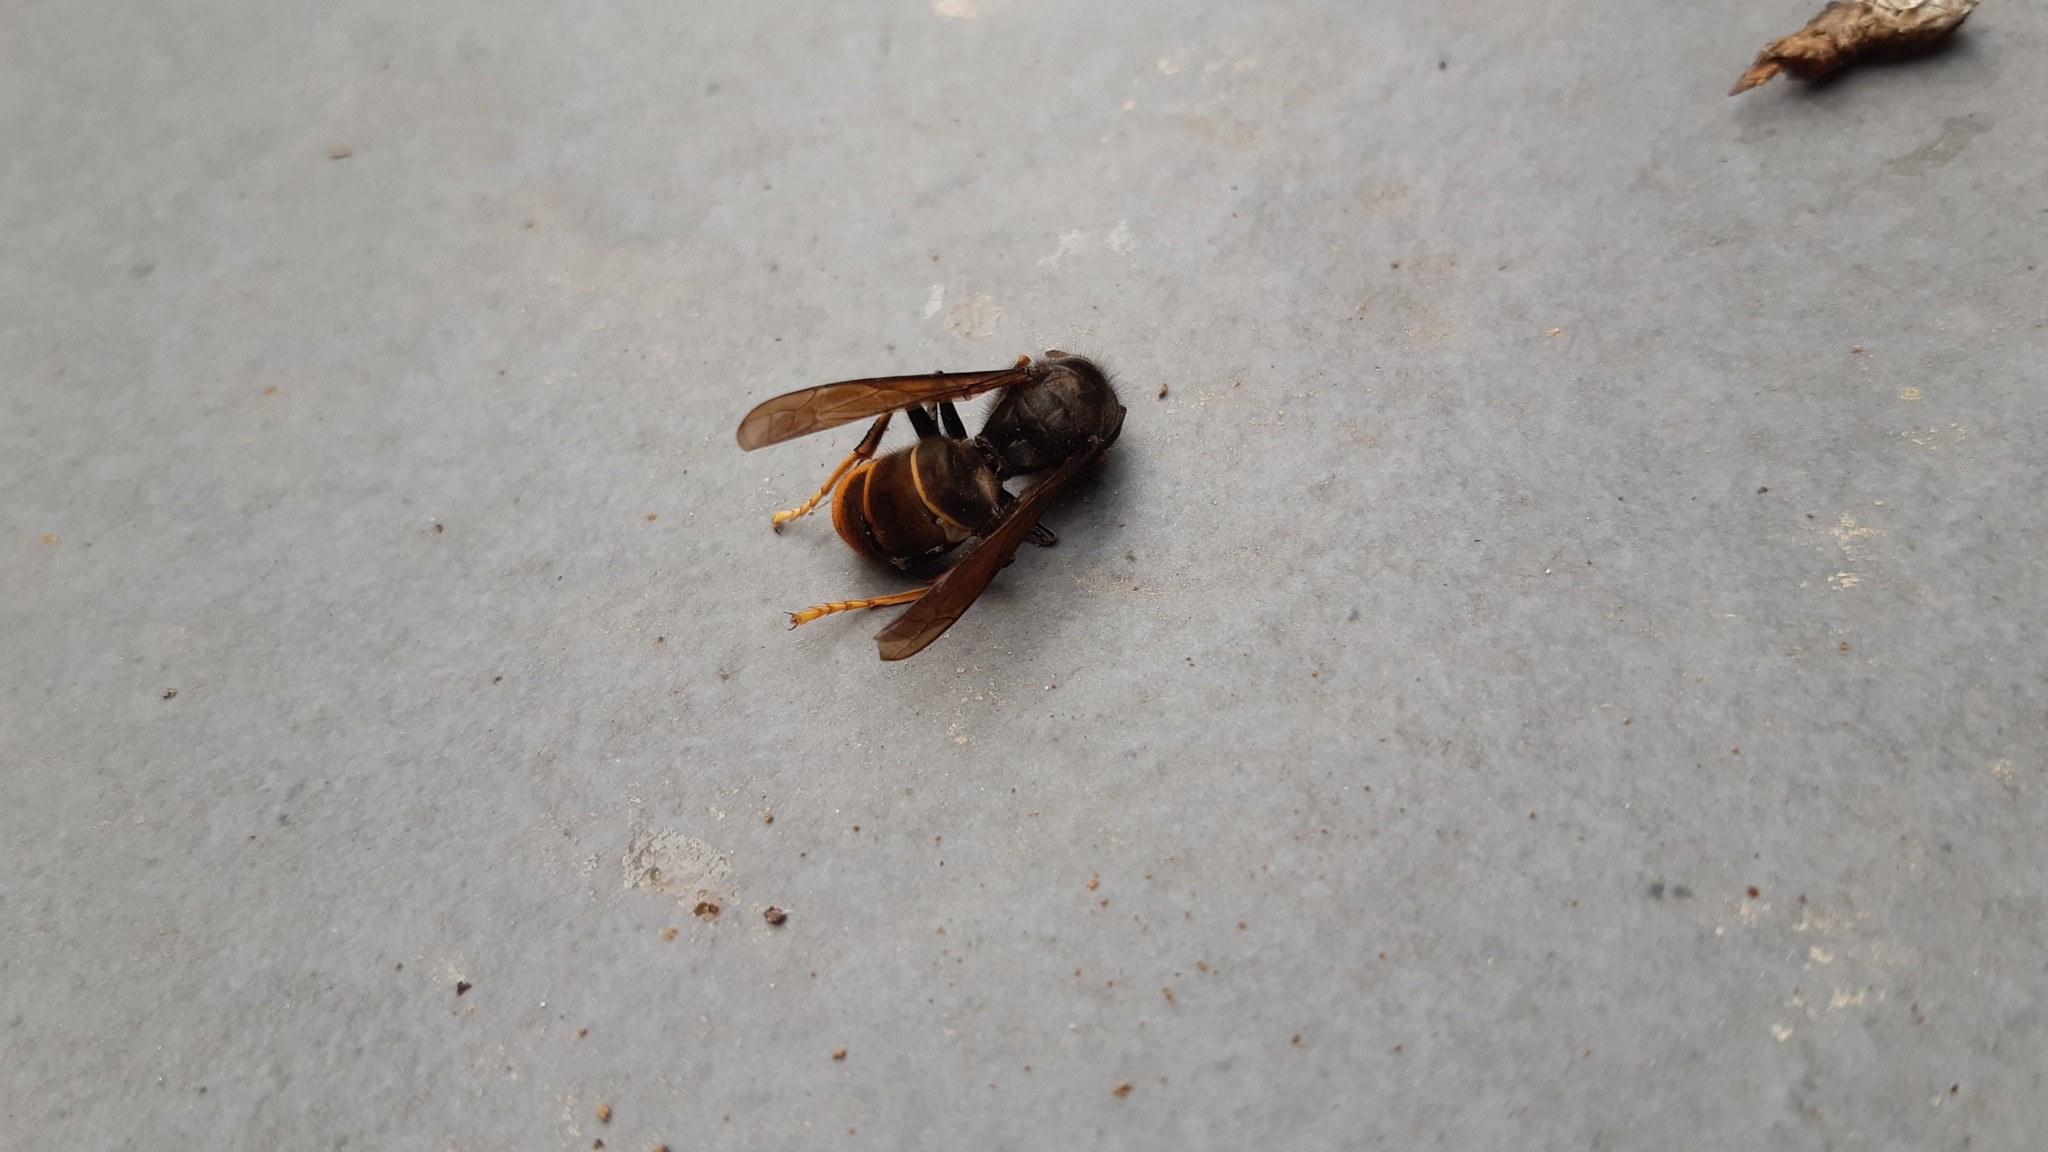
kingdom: Animalia
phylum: Arthropoda
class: Insecta
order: Hymenoptera
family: Vespidae
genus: Vespa
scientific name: Vespa velutina
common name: Asian hornet
